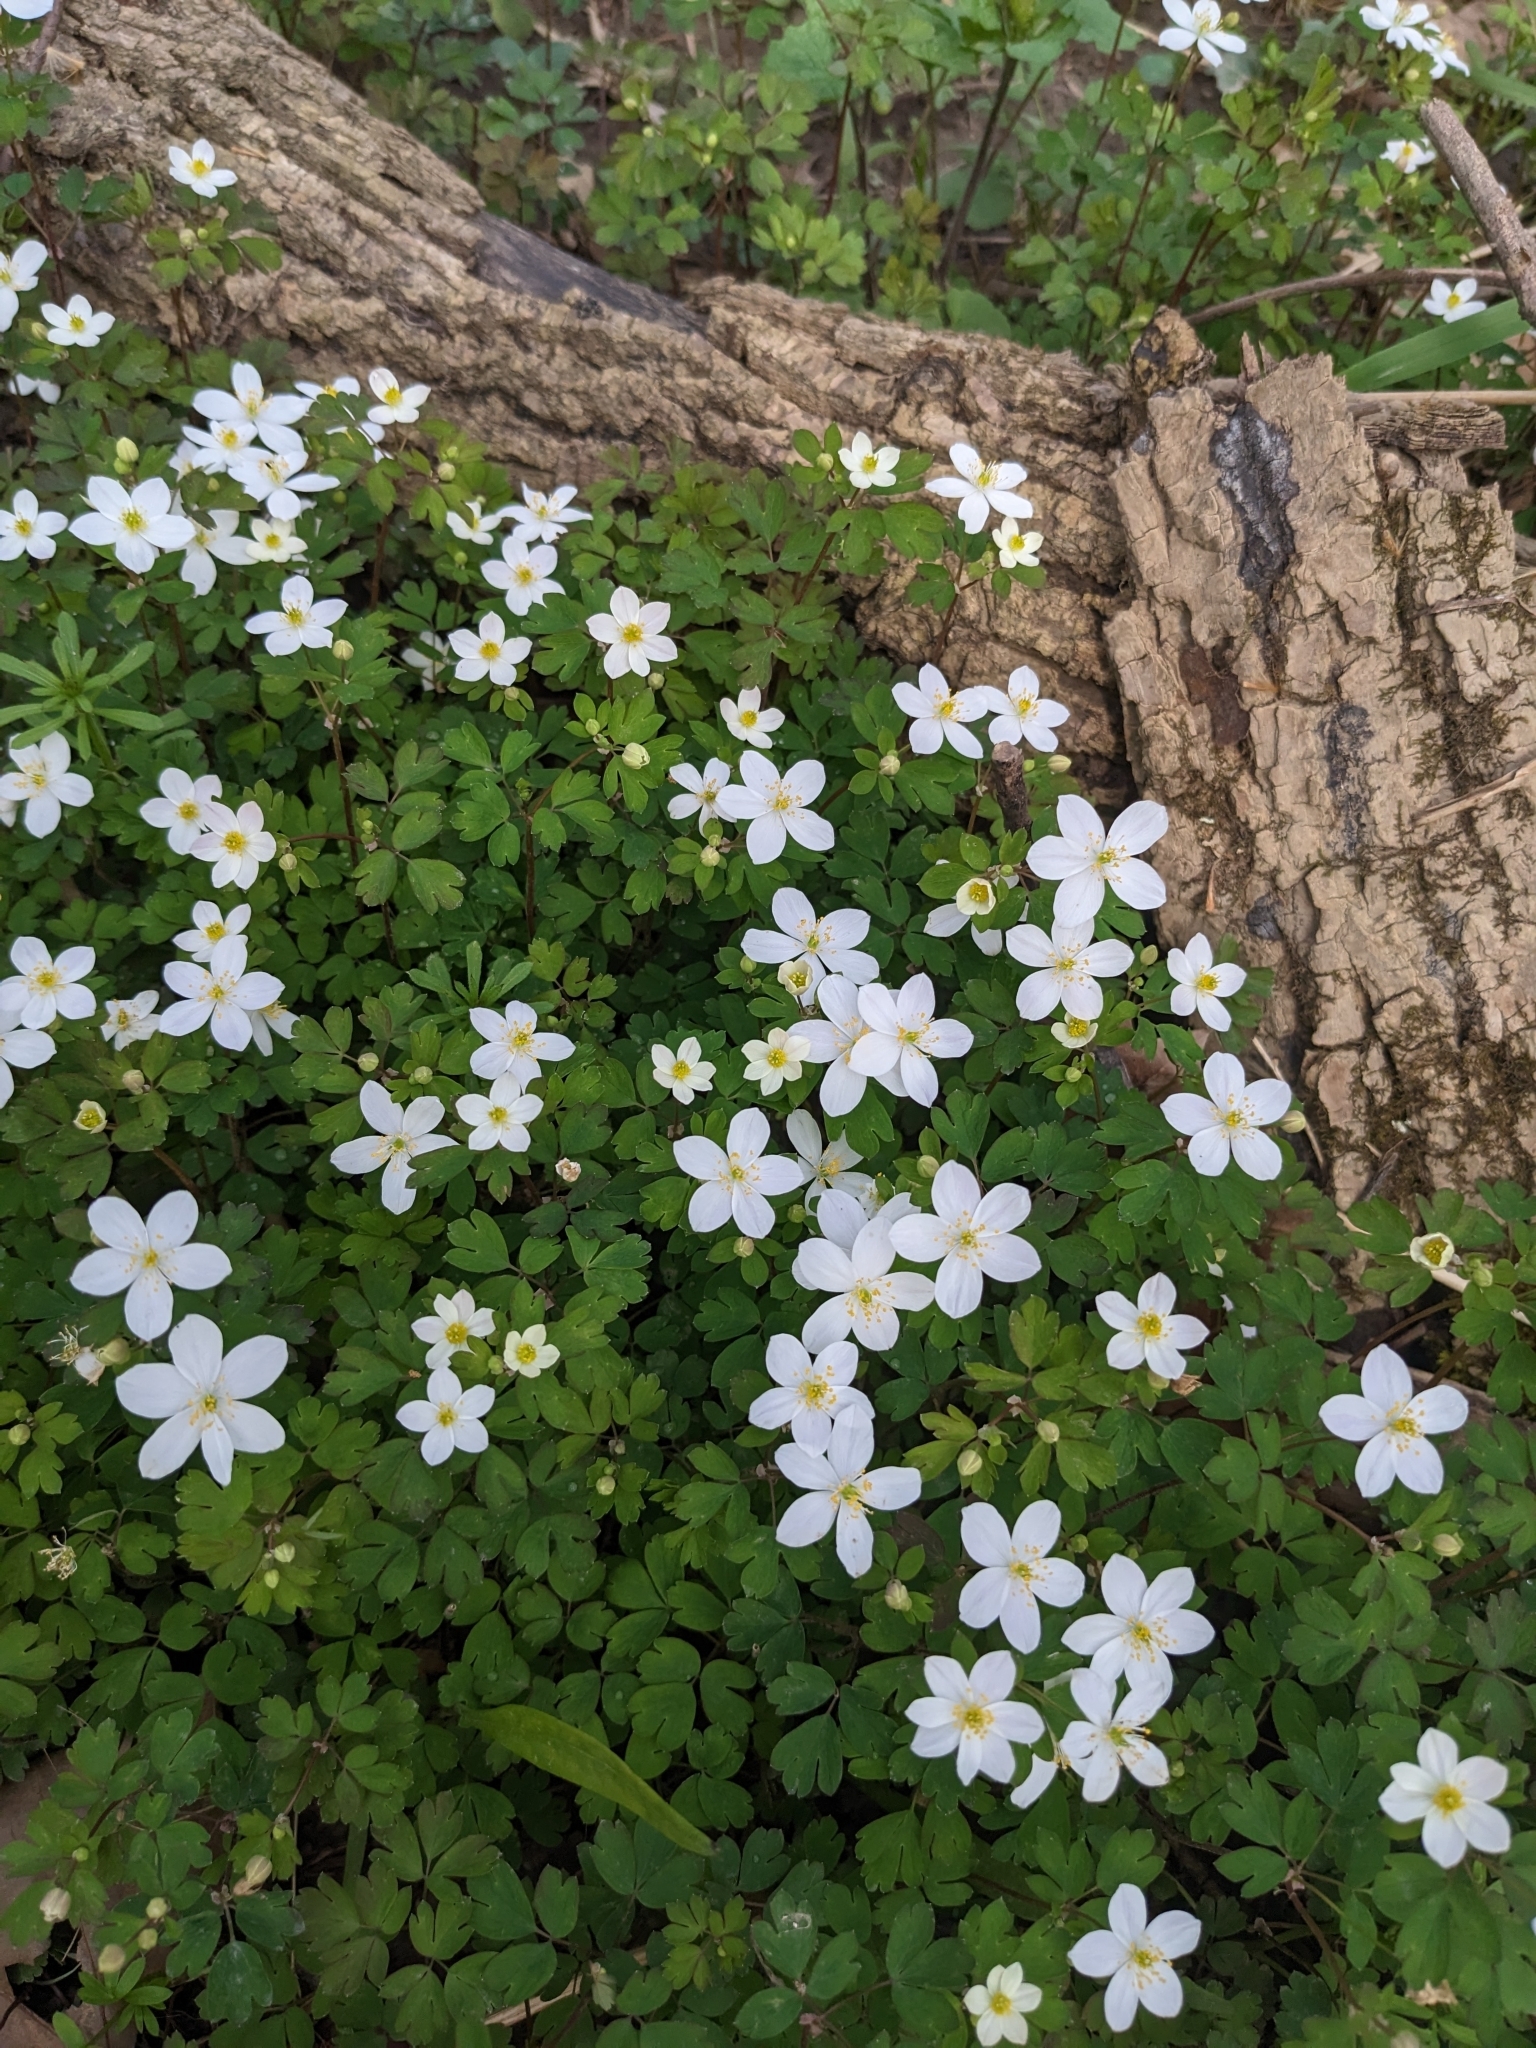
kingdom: Plantae
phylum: Tracheophyta
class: Magnoliopsida
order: Ranunculales
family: Ranunculaceae
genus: Enemion
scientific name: Enemion biternatum
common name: Eastern false rue-anemone
